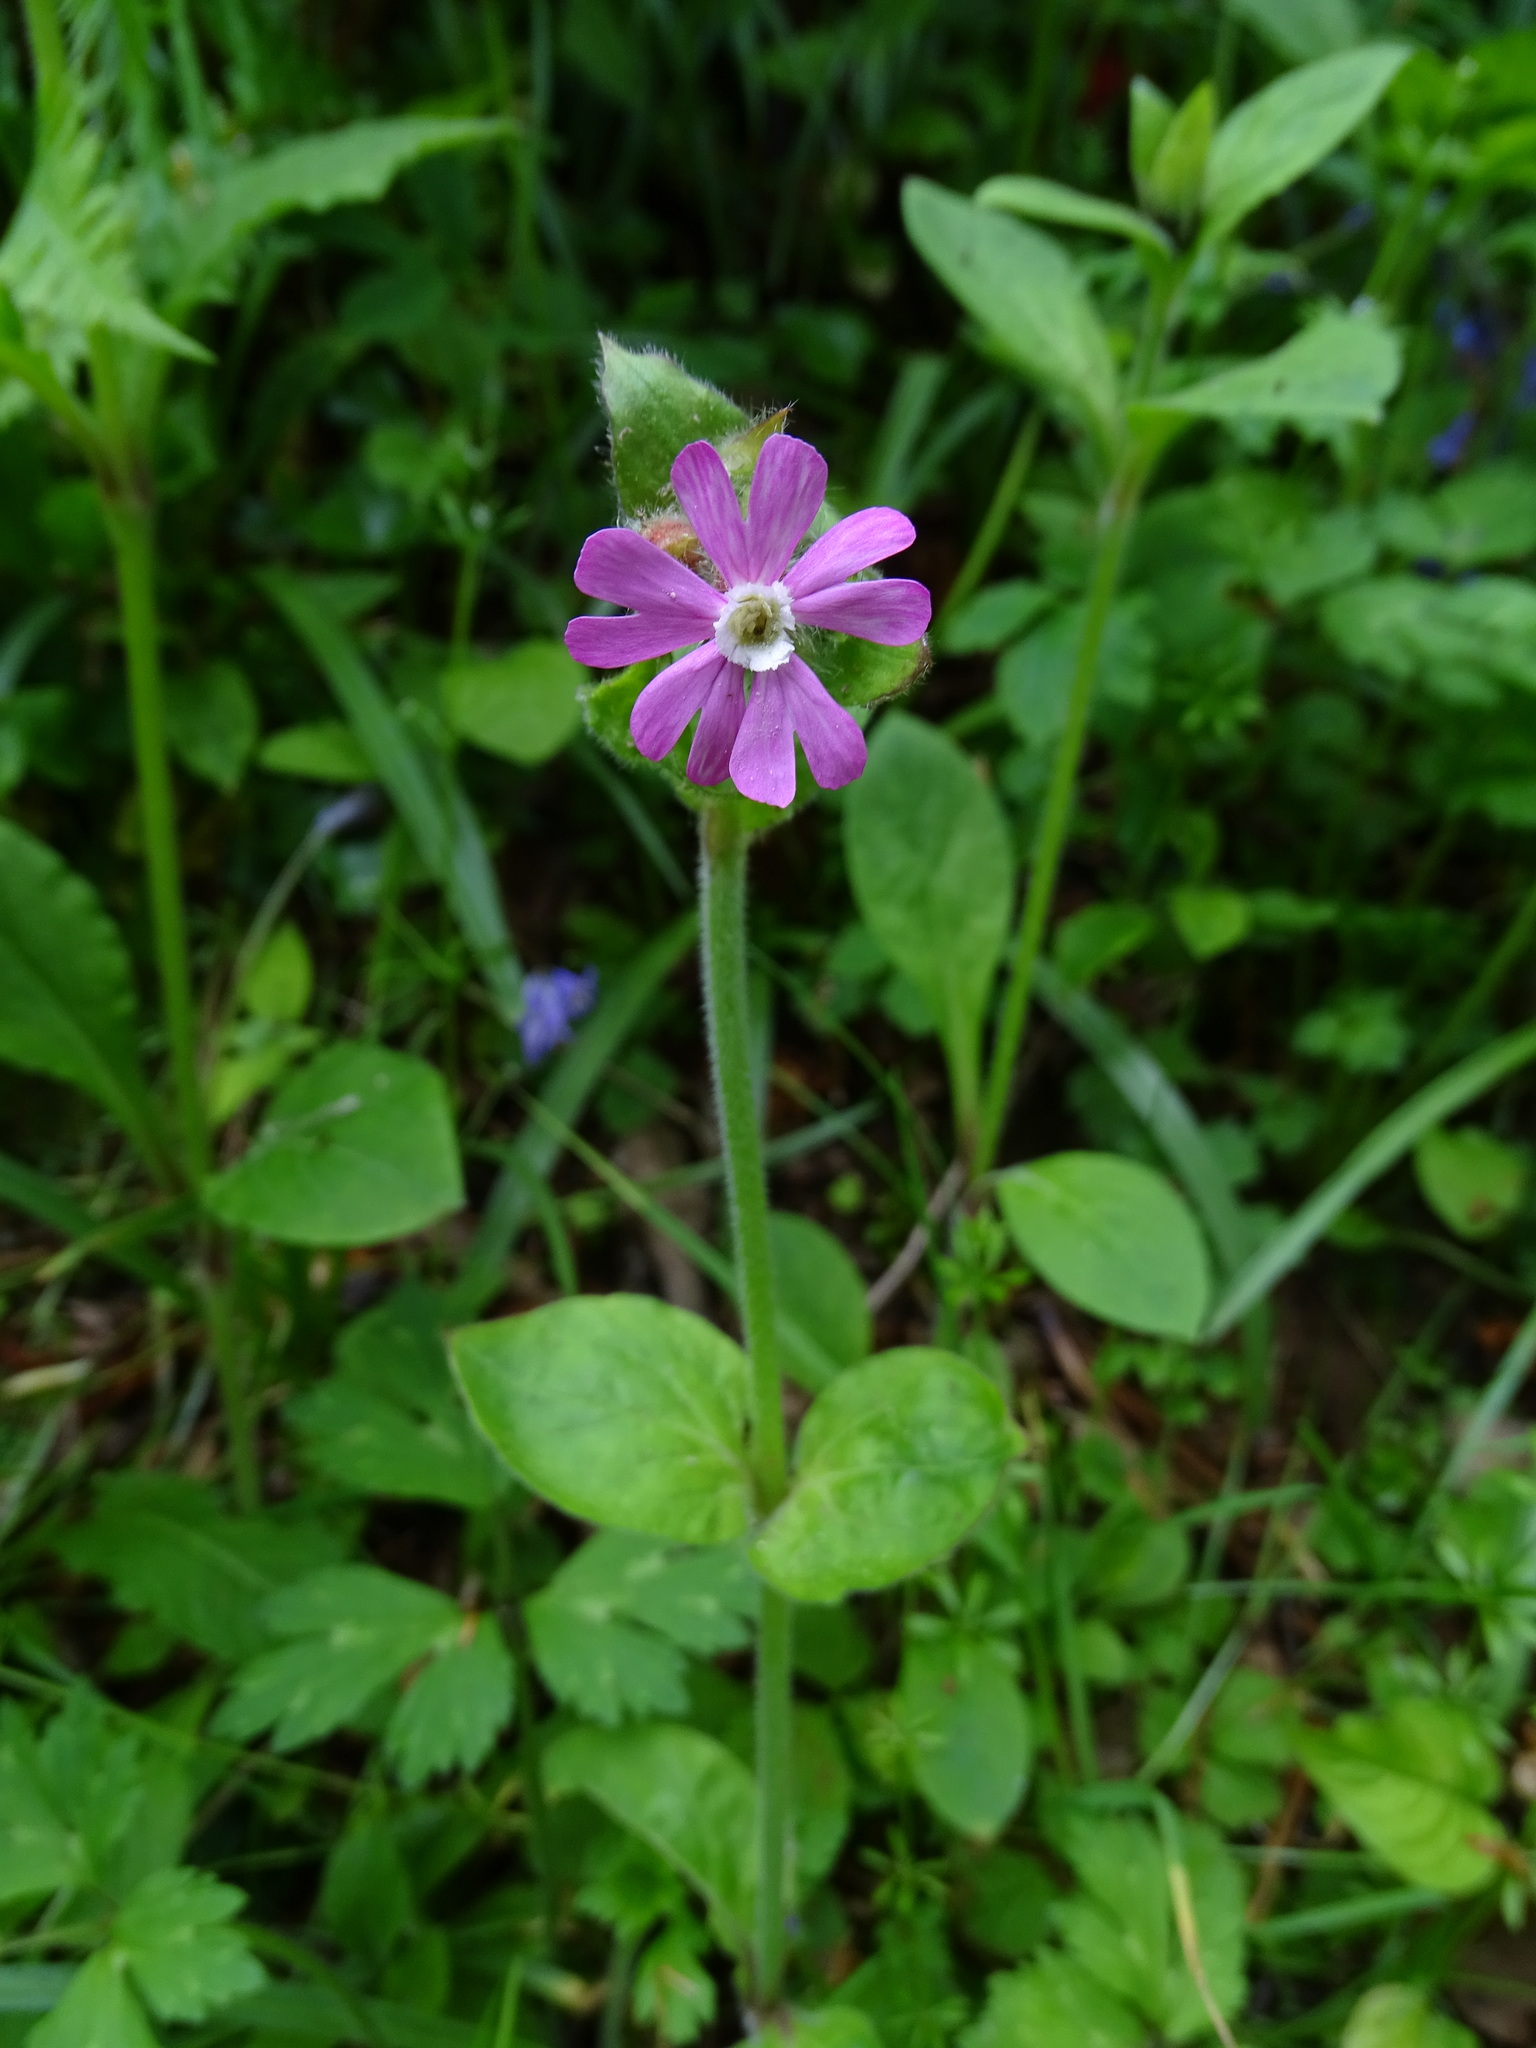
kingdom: Plantae
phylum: Tracheophyta
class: Magnoliopsida
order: Caryophyllales
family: Caryophyllaceae
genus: Silene
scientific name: Silene dioica
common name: Red campion
